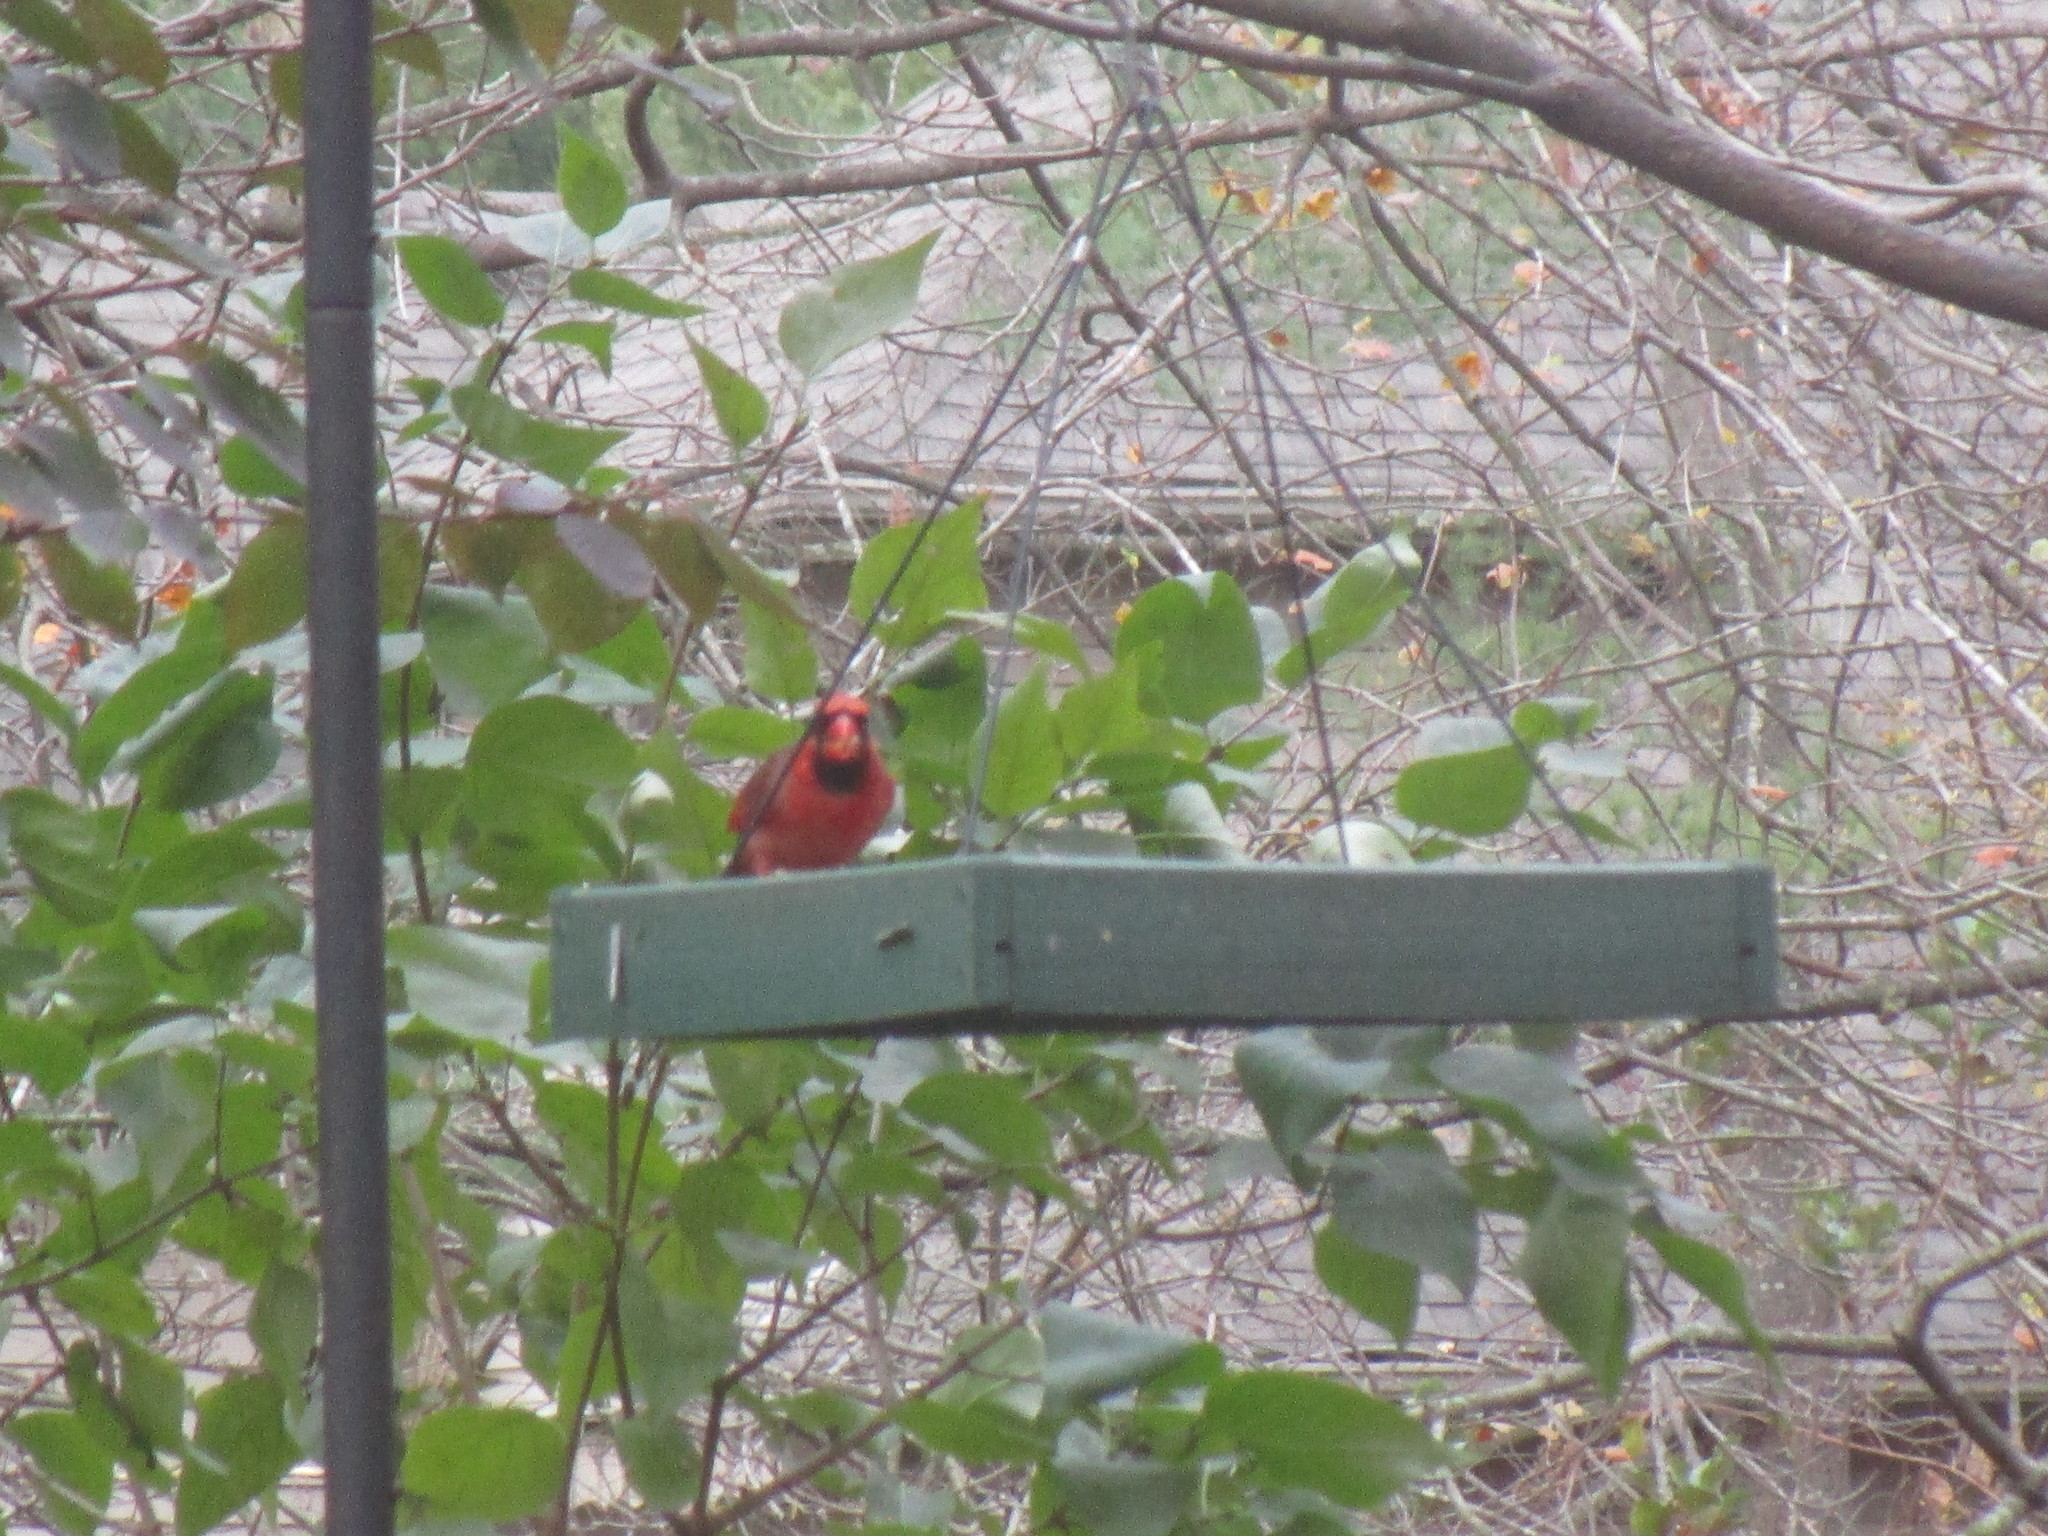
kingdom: Animalia
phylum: Chordata
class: Aves
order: Passeriformes
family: Cardinalidae
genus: Cardinalis
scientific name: Cardinalis cardinalis
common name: Northern cardinal
